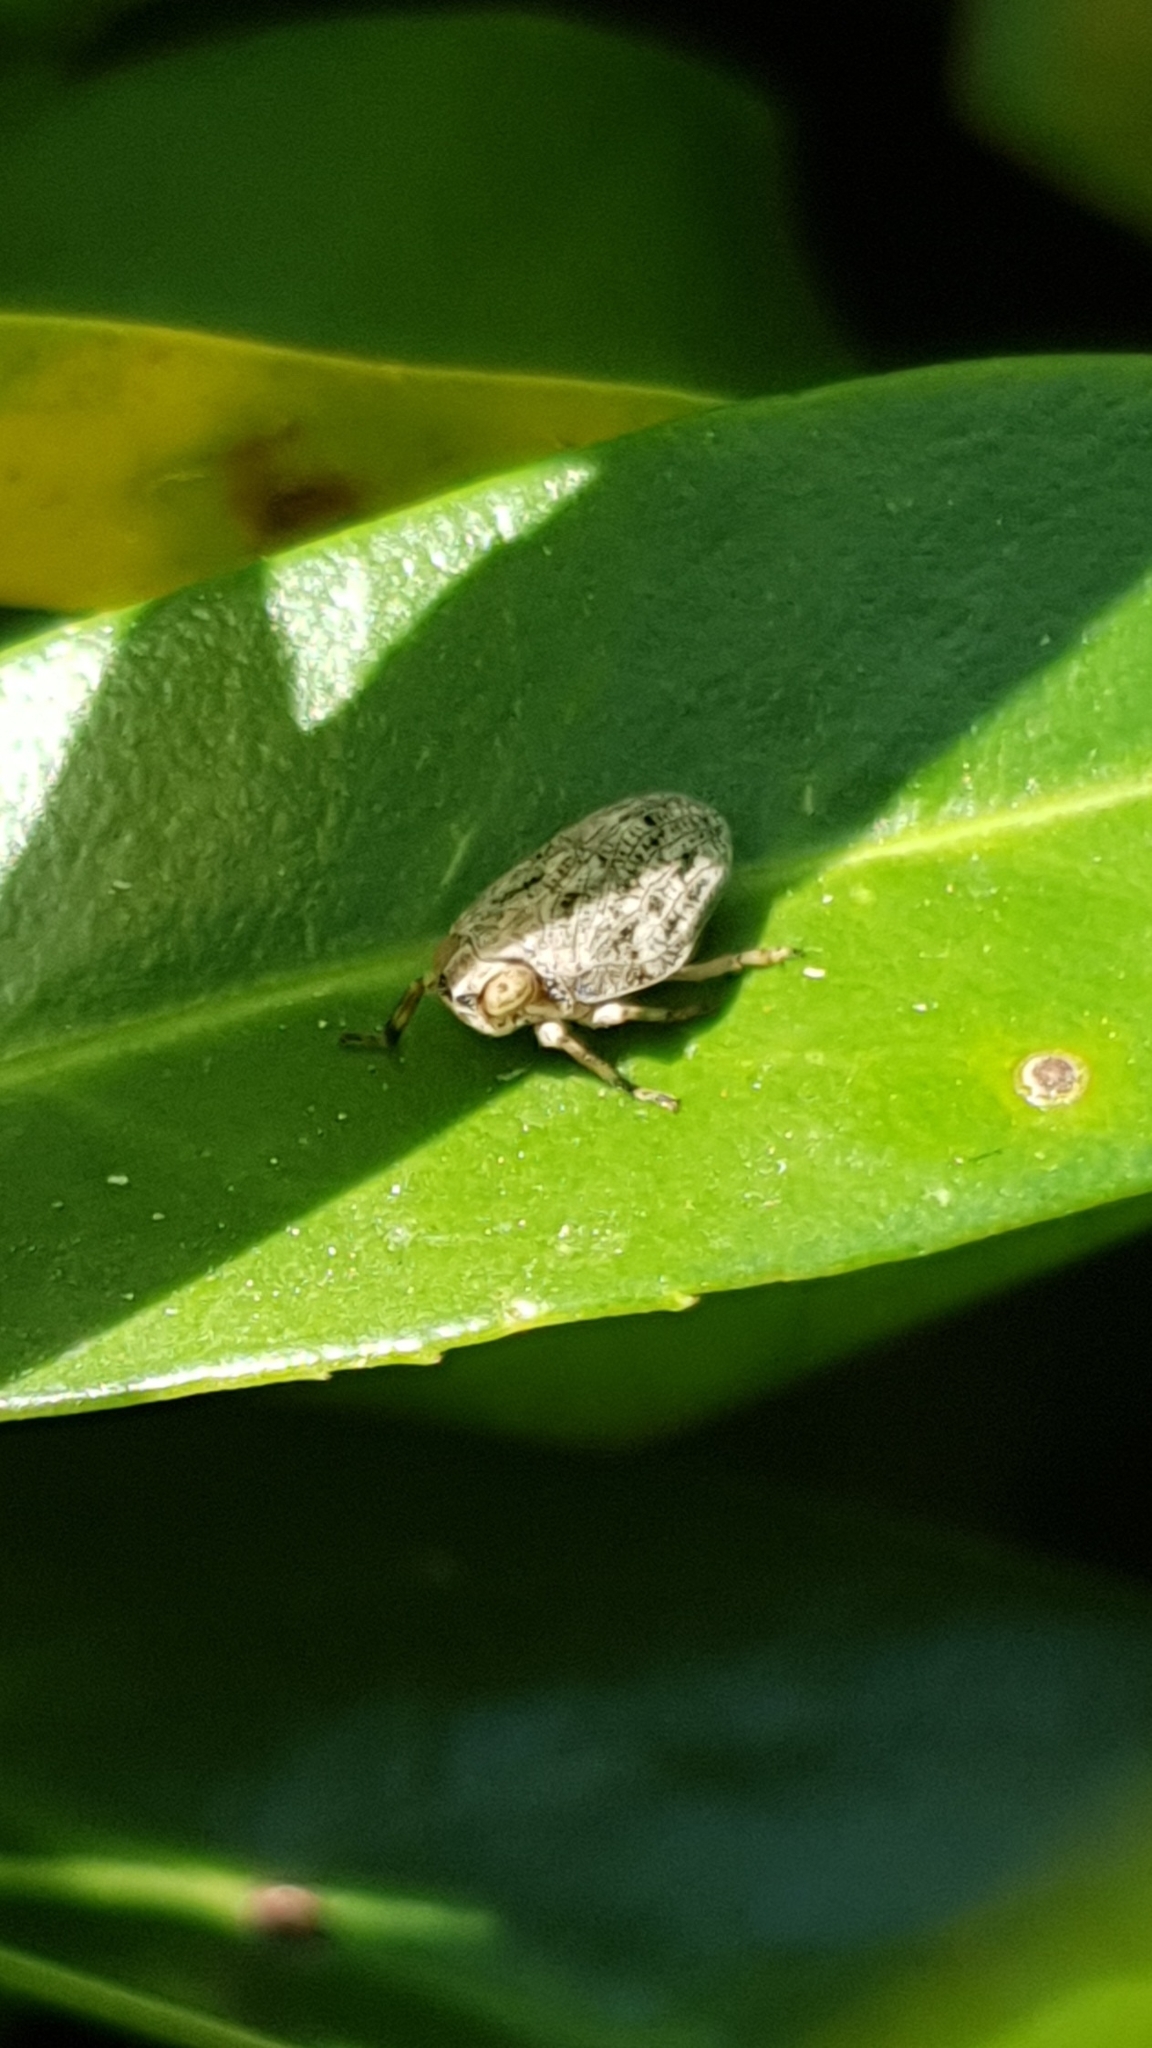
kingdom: Animalia
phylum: Arthropoda
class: Insecta
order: Hemiptera
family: Issidae
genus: Issus
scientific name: Issus coleoptratus
